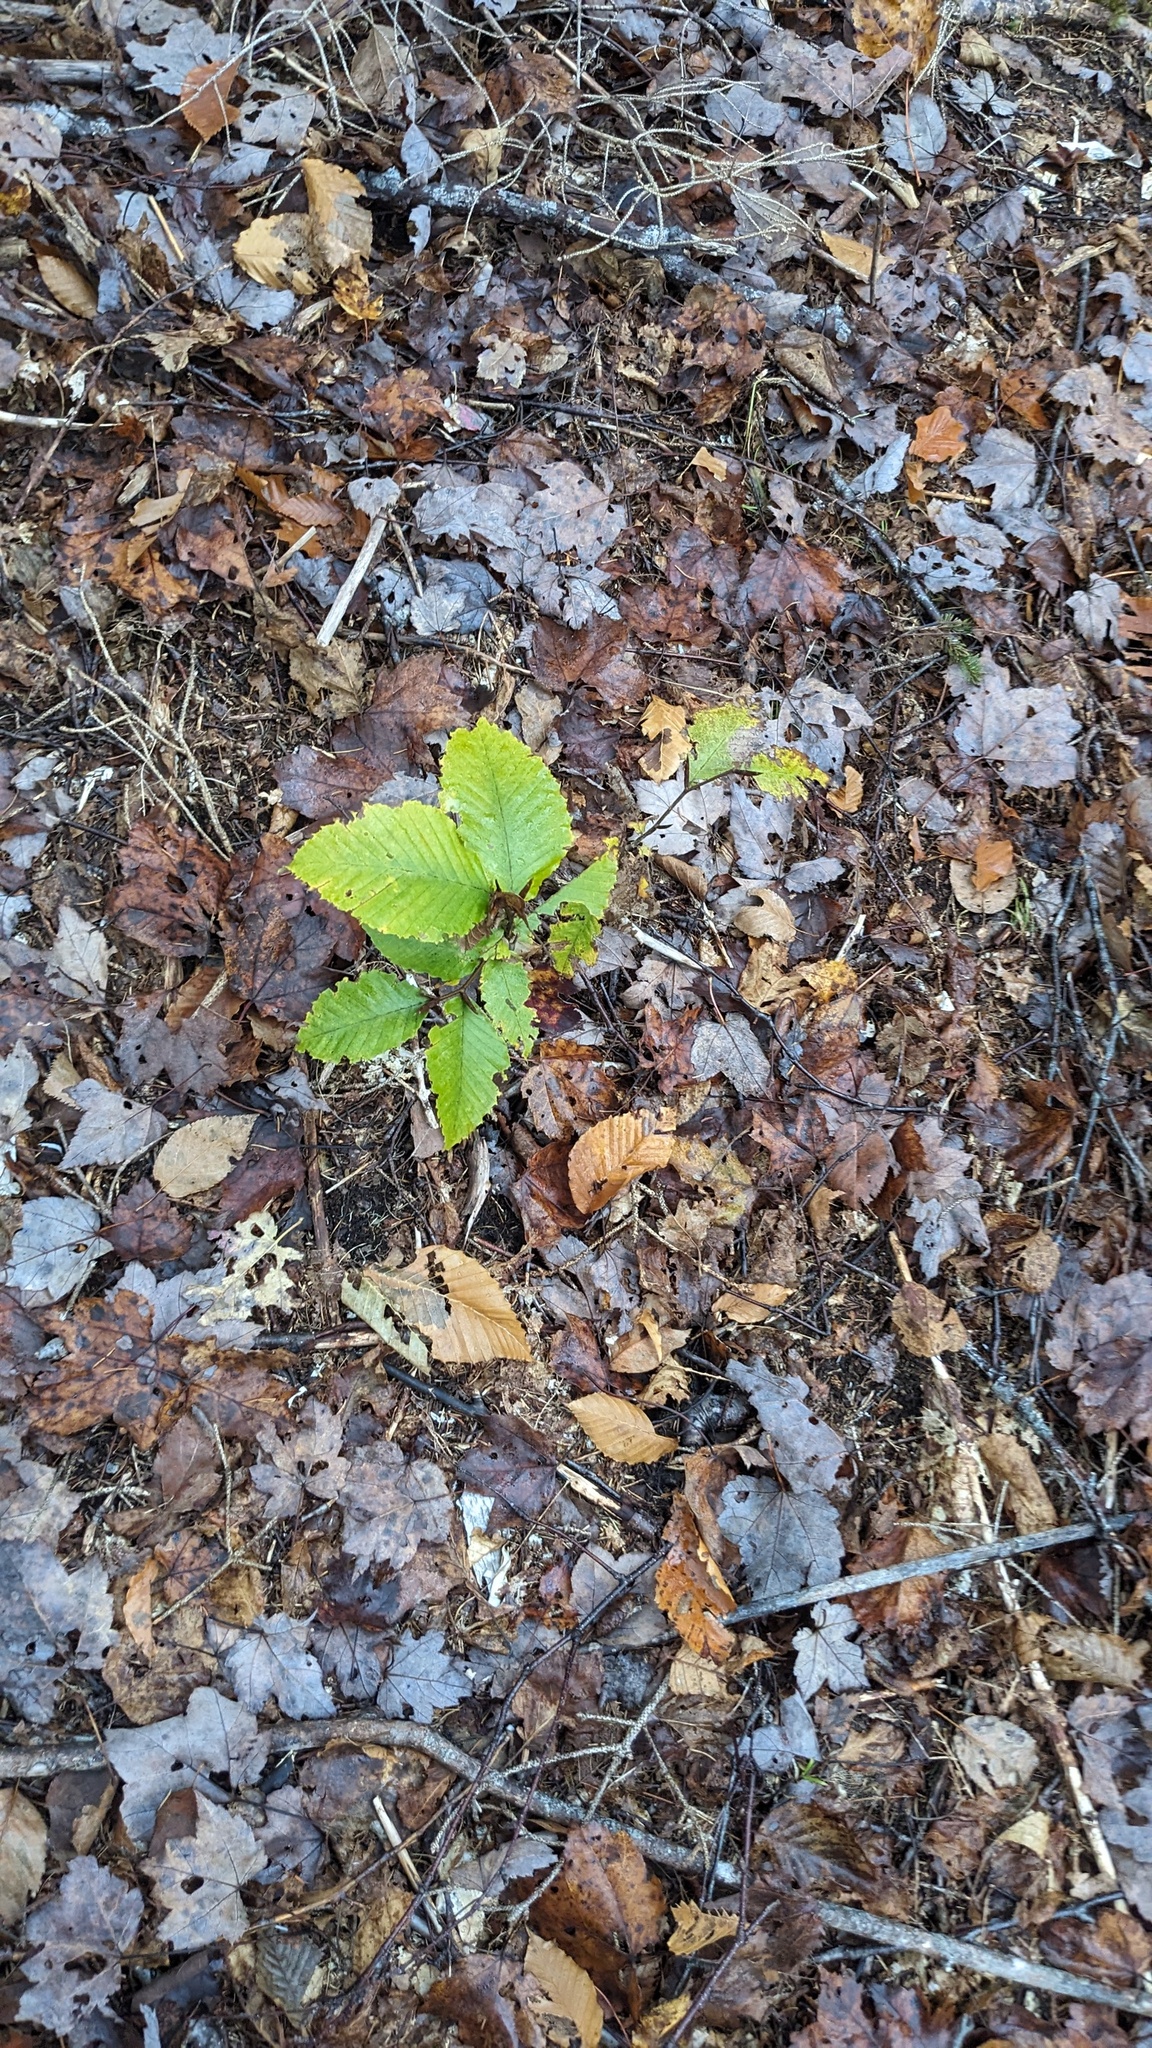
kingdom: Plantae
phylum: Tracheophyta
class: Magnoliopsida
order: Fagales
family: Fagaceae
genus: Fagus
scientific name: Fagus grandifolia
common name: American beech
